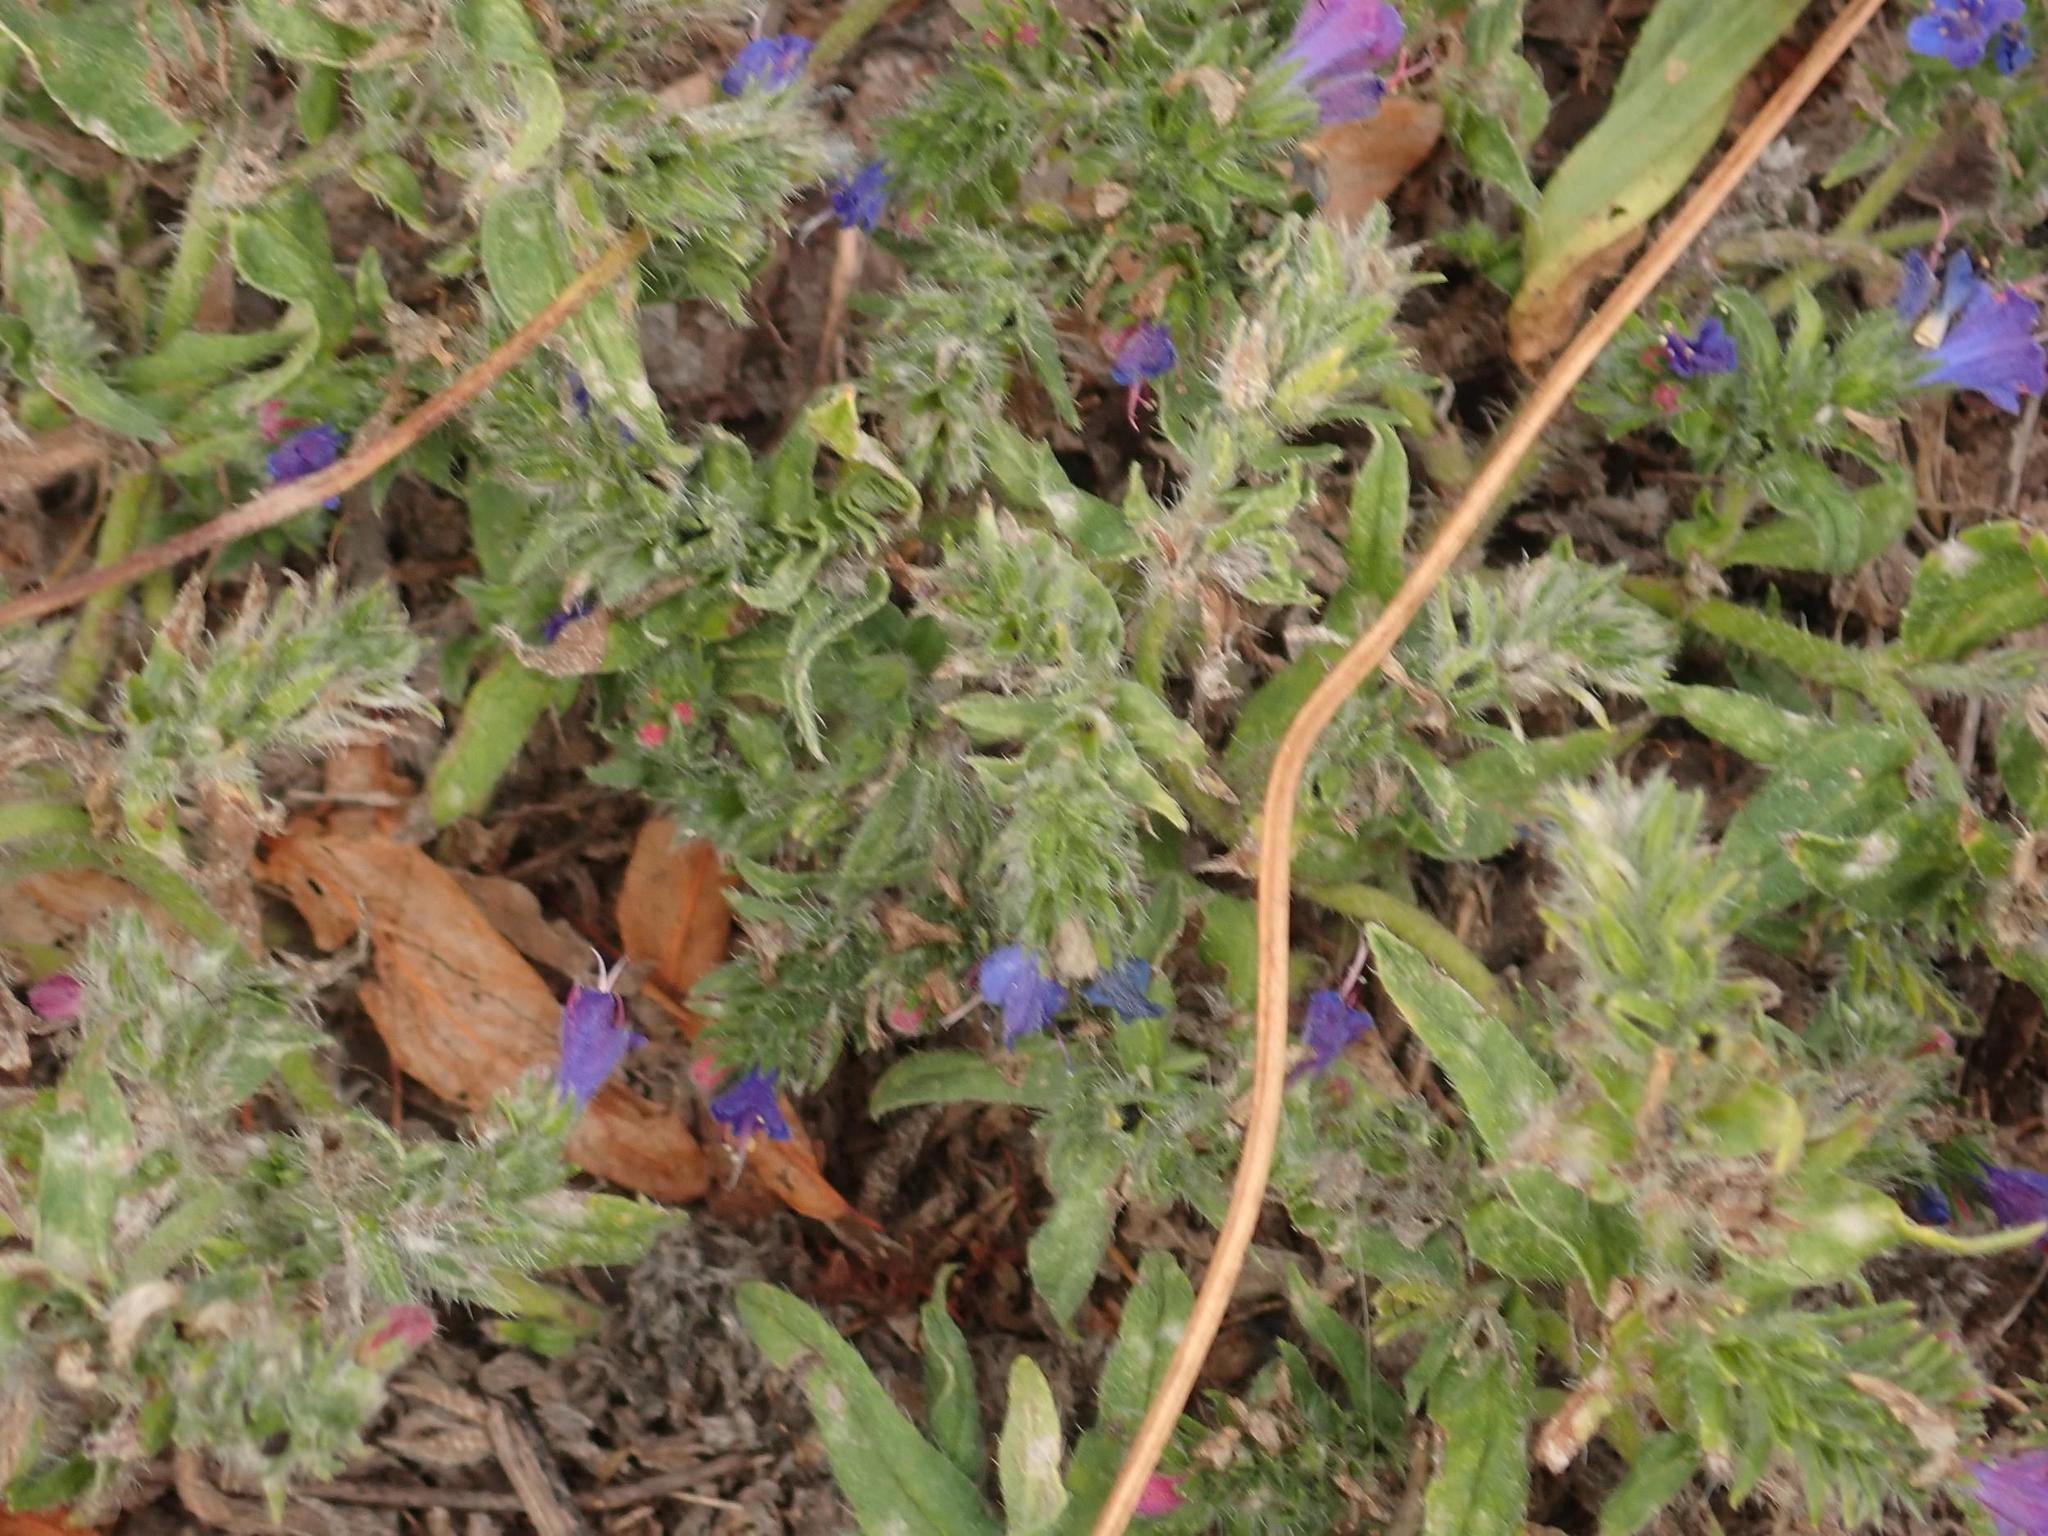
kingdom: Plantae
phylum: Tracheophyta
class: Magnoliopsida
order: Boraginales
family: Boraginaceae
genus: Echium
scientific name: Echium vulgare
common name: Common viper's bugloss
